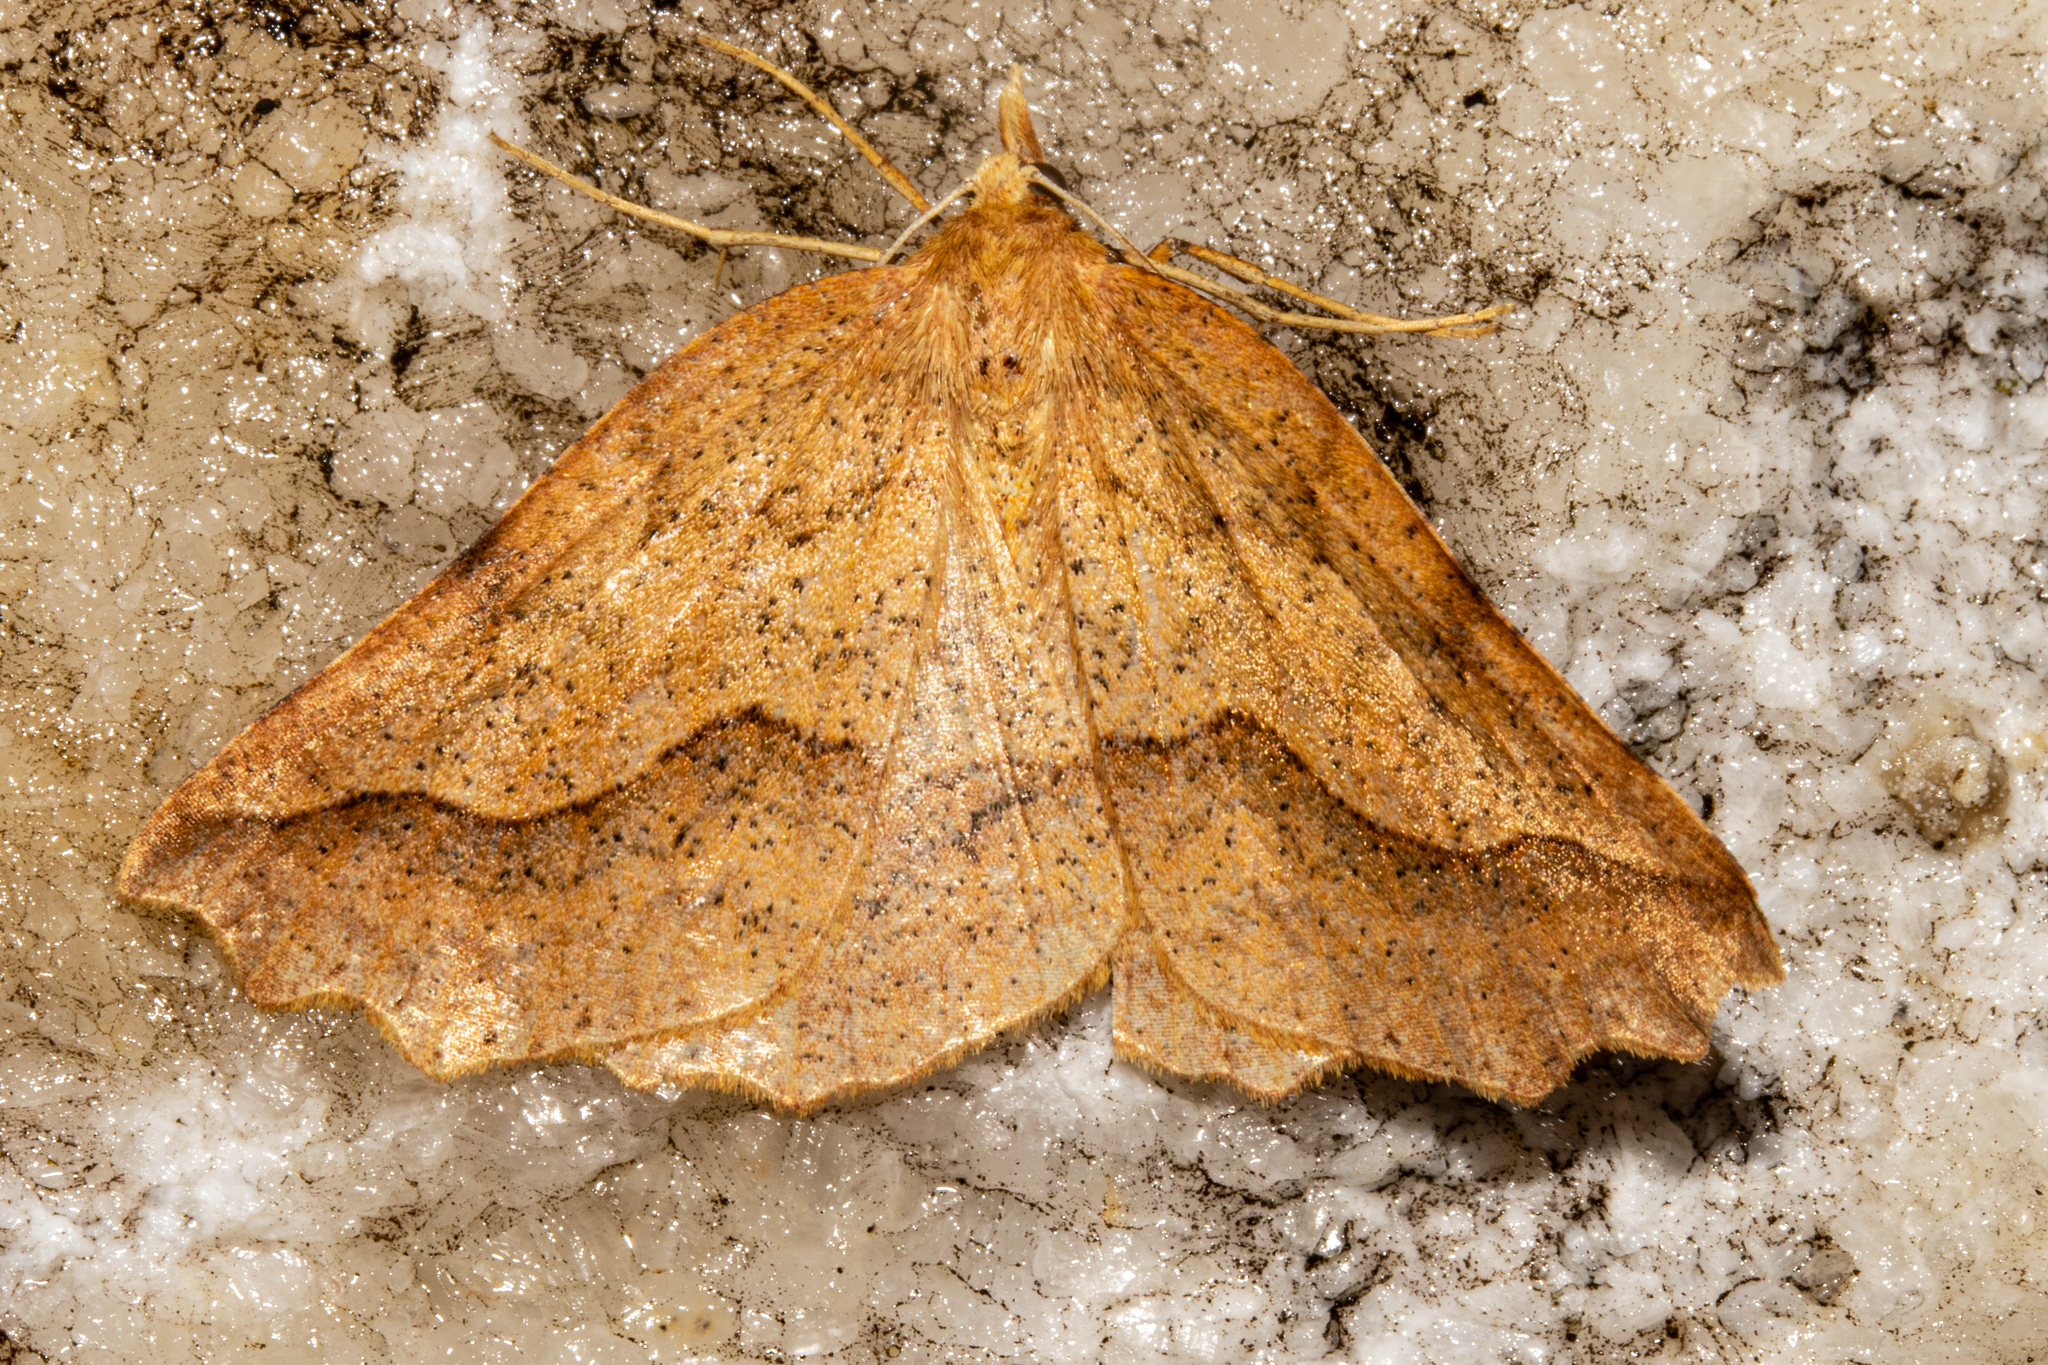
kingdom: Animalia
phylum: Arthropoda
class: Insecta
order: Lepidoptera
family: Geometridae
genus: Ischalis
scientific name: Ischalis variabilis
